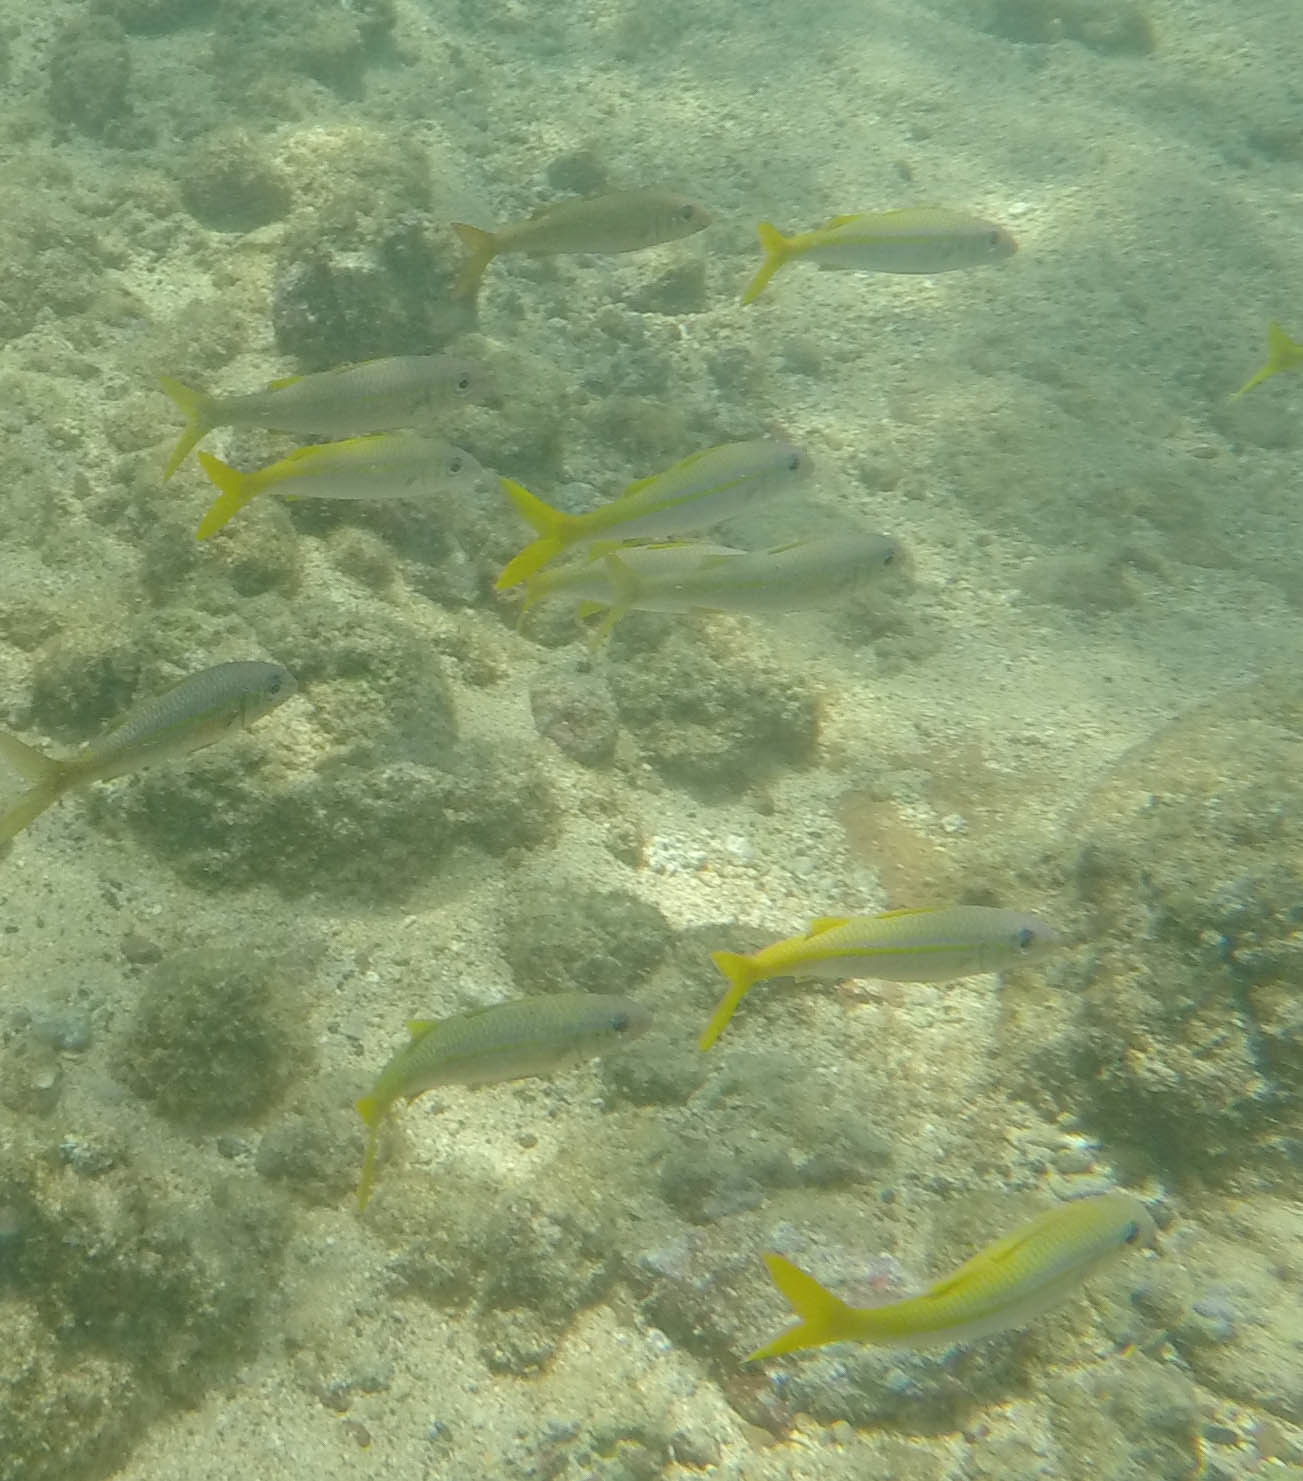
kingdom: Animalia
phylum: Chordata
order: Perciformes
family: Mullidae
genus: Mulloidichthys
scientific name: Mulloidichthys vanicolensis
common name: Yellowfin goatfish
